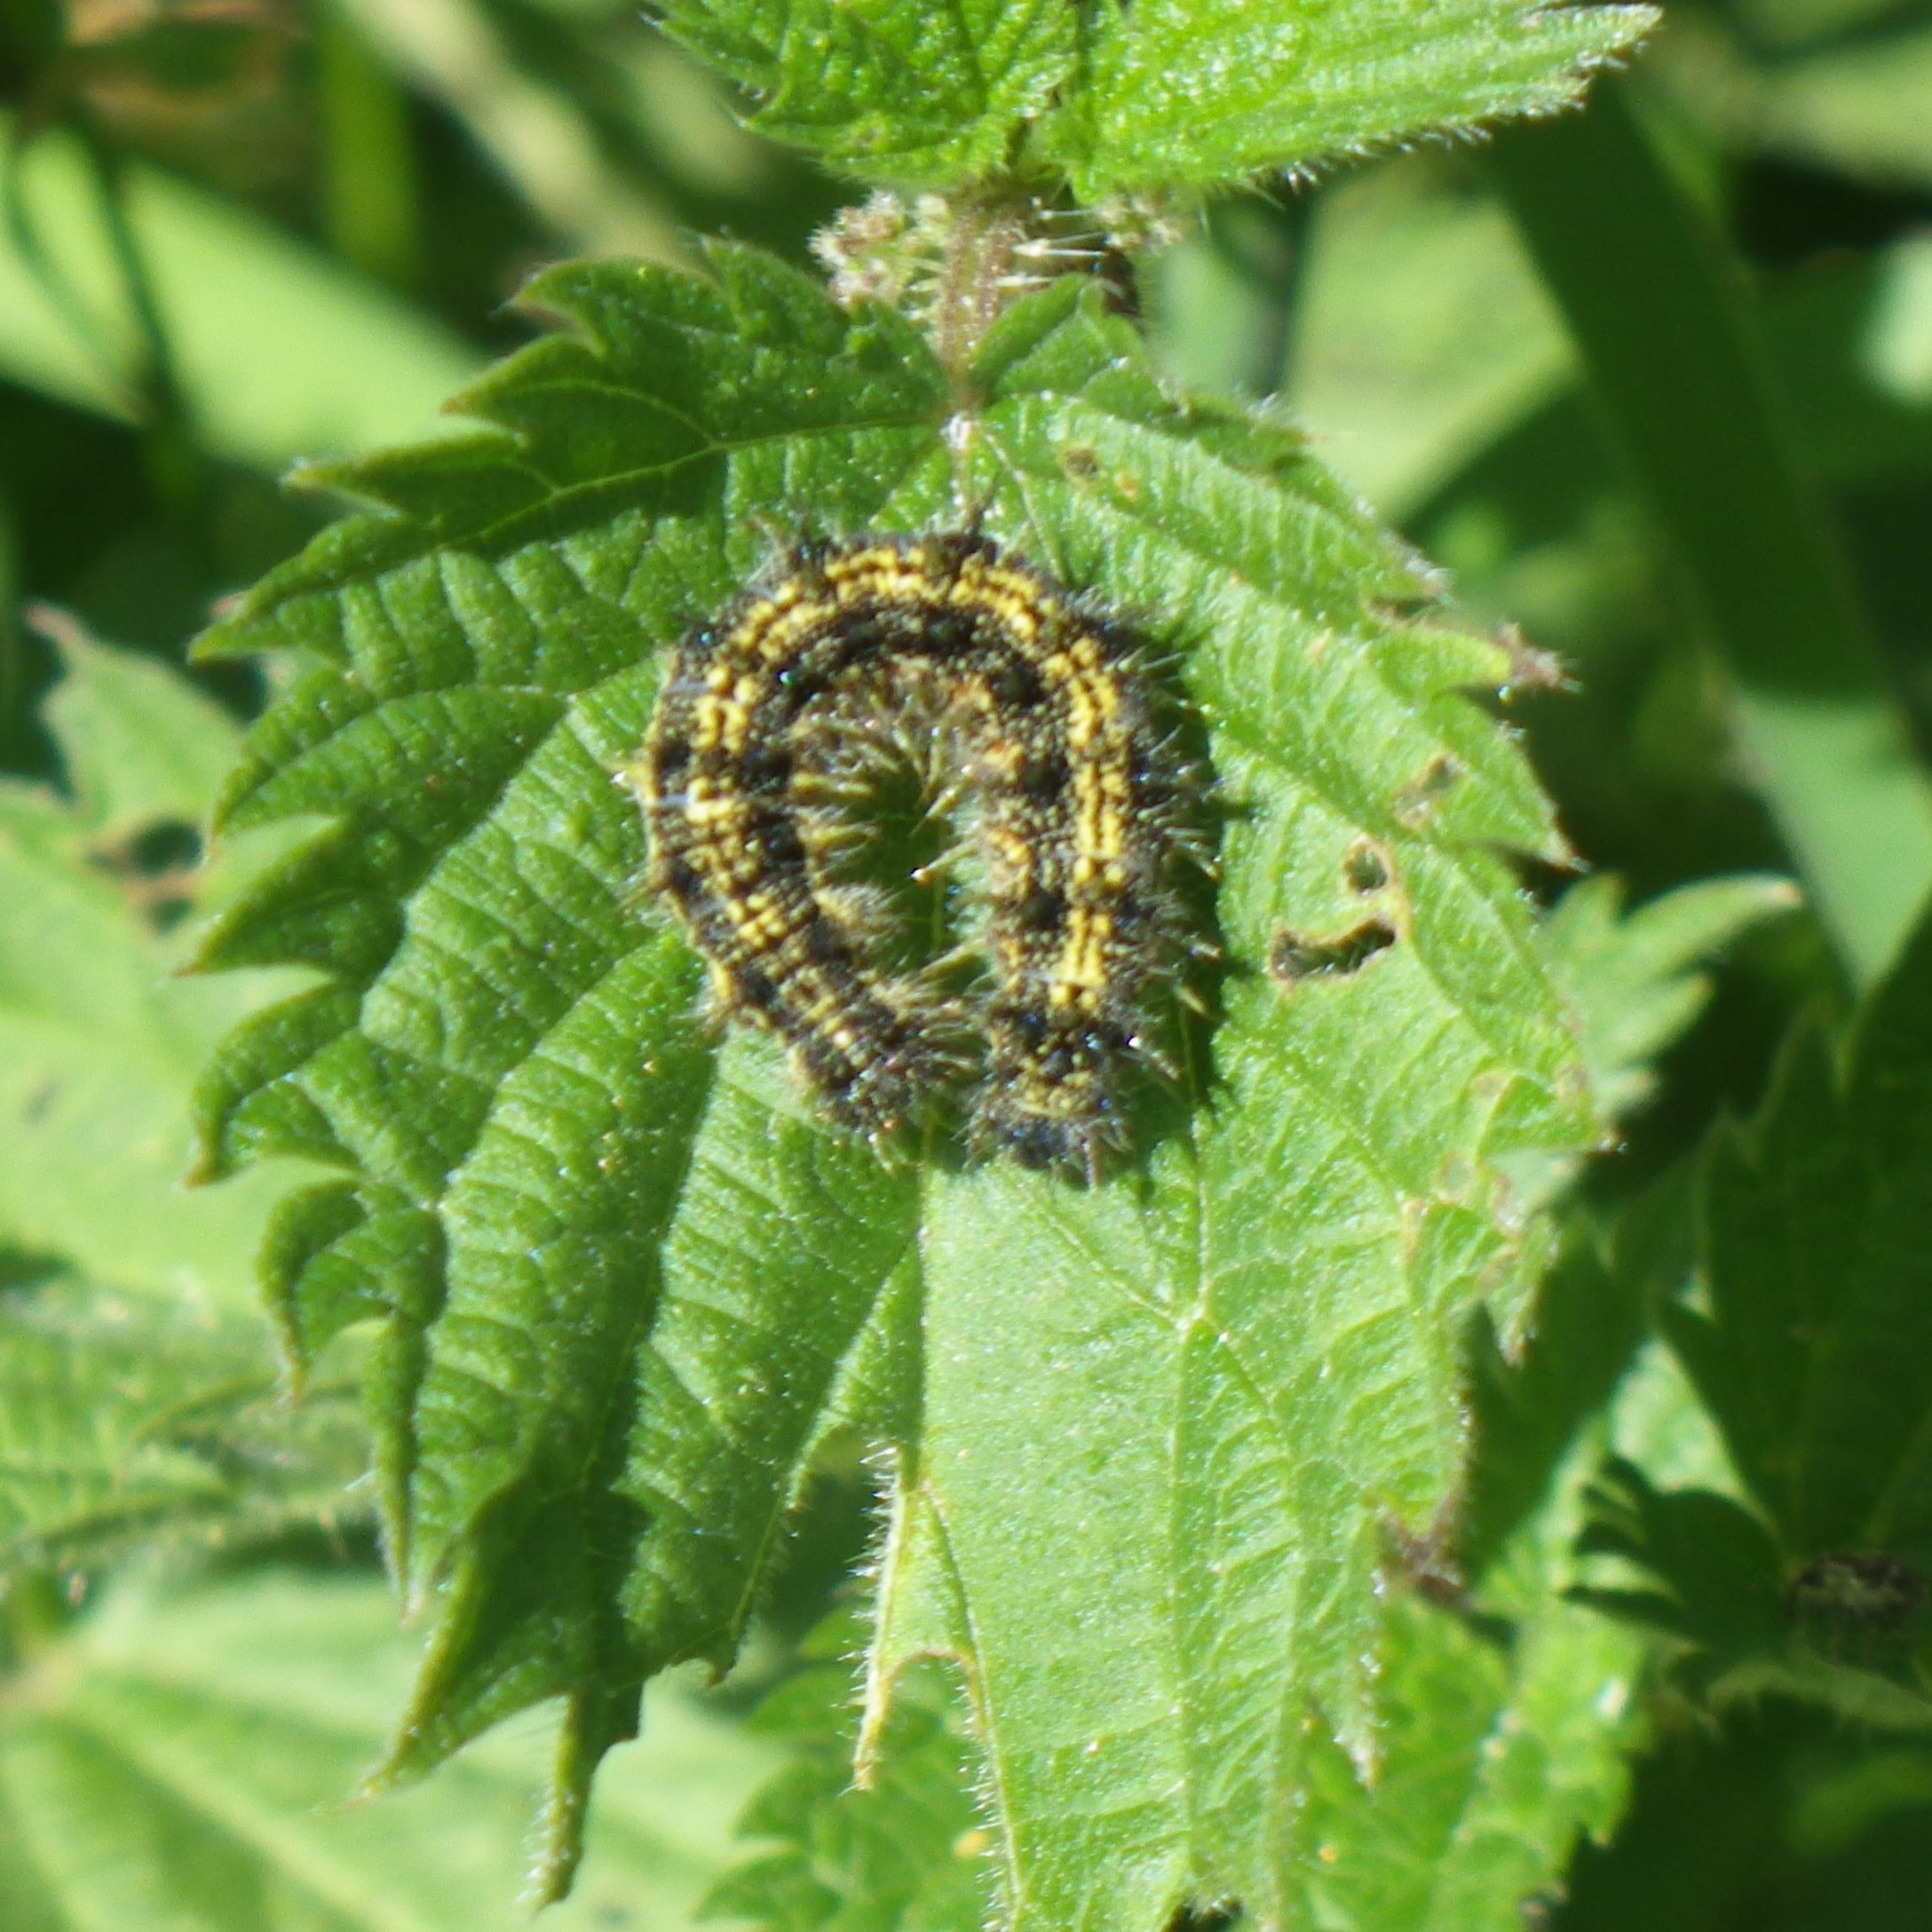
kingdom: Animalia
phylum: Arthropoda
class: Insecta
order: Lepidoptera
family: Nymphalidae
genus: Aglais
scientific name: Aglais urticae
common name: Small tortoiseshell
